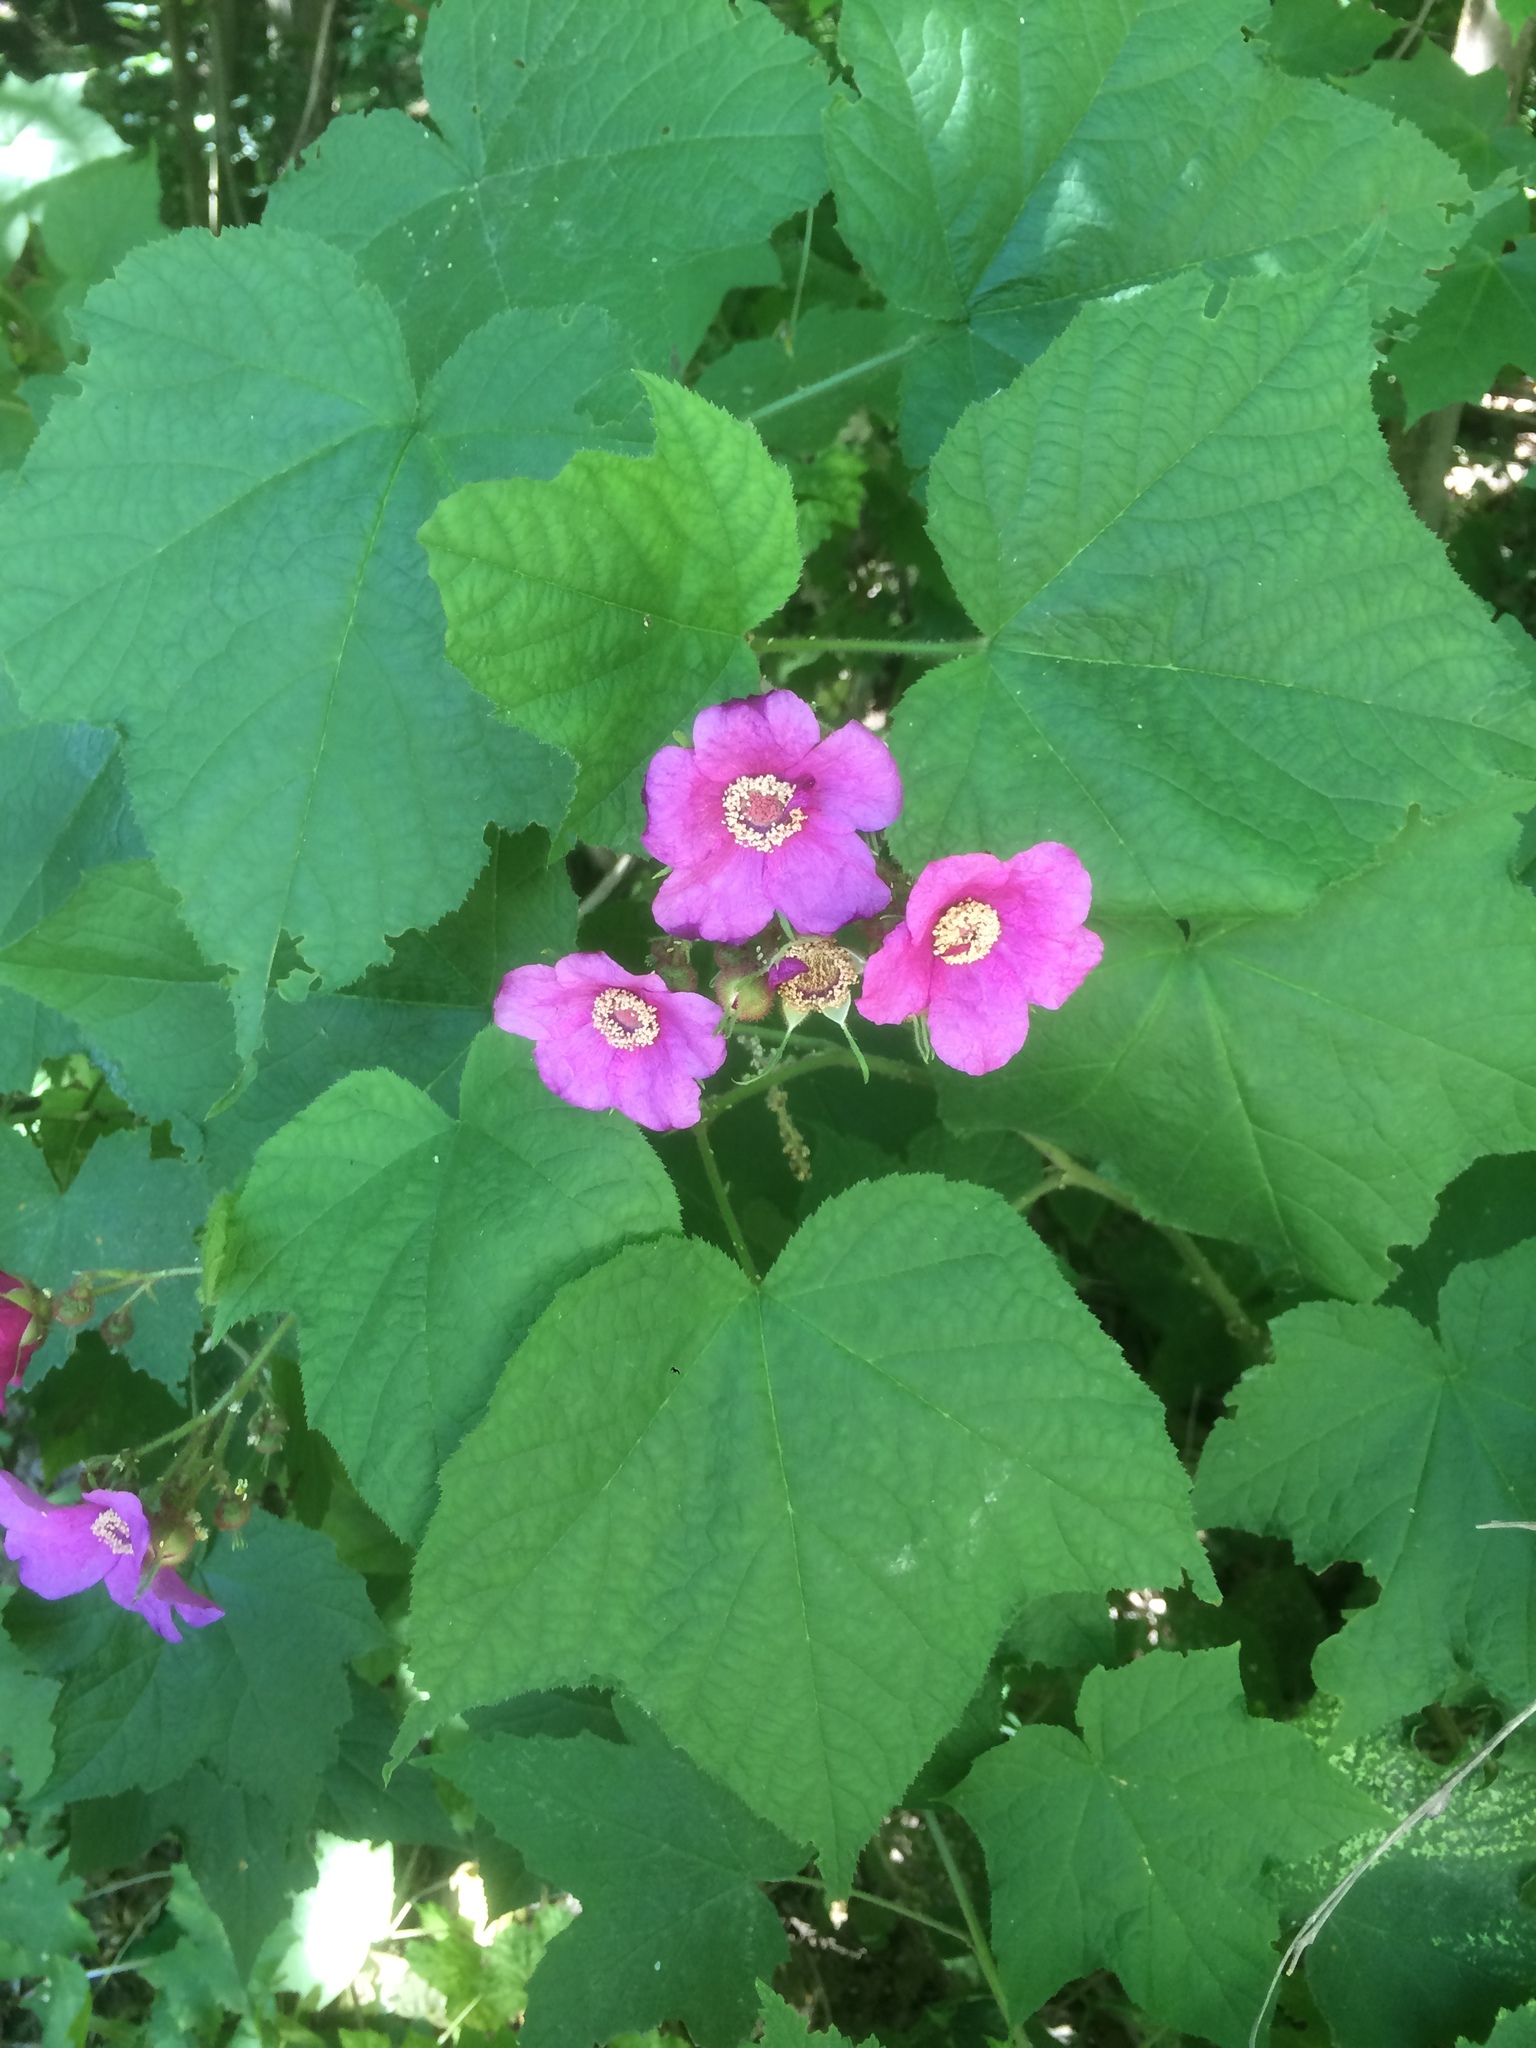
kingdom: Plantae
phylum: Tracheophyta
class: Magnoliopsida
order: Rosales
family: Rosaceae
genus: Rubus
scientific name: Rubus odoratus
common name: Purple-flowered raspberry
